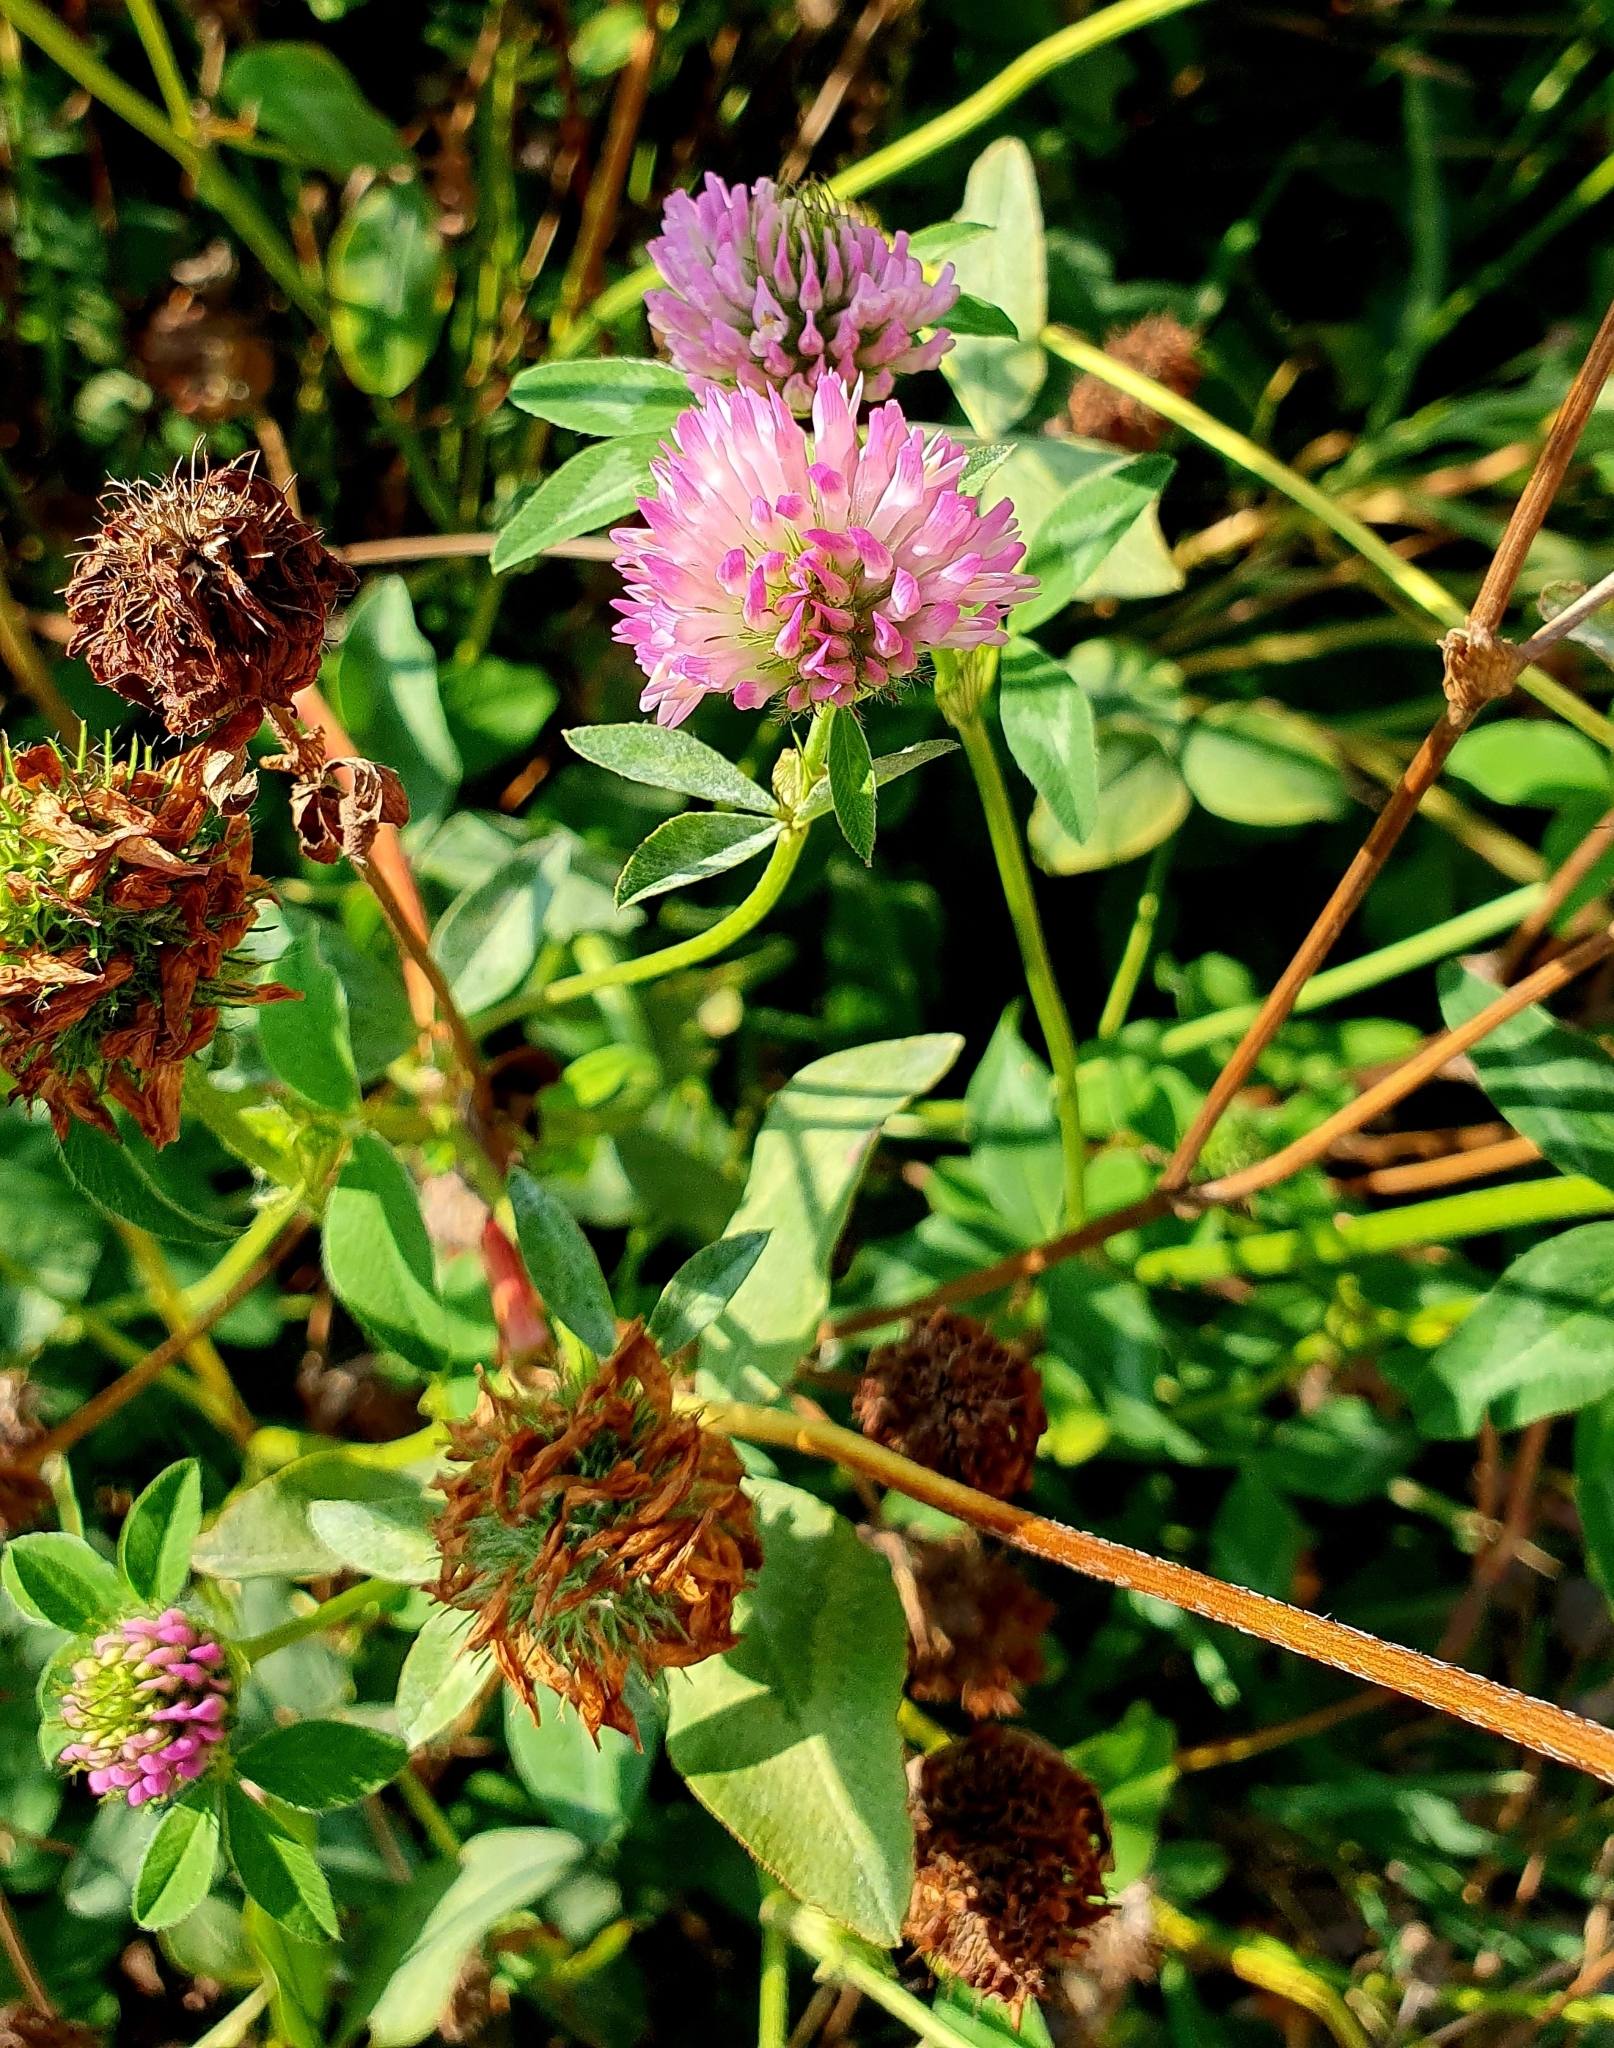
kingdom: Plantae
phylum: Tracheophyta
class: Magnoliopsida
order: Fabales
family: Fabaceae
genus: Trifolium
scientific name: Trifolium pratense
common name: Red clover
